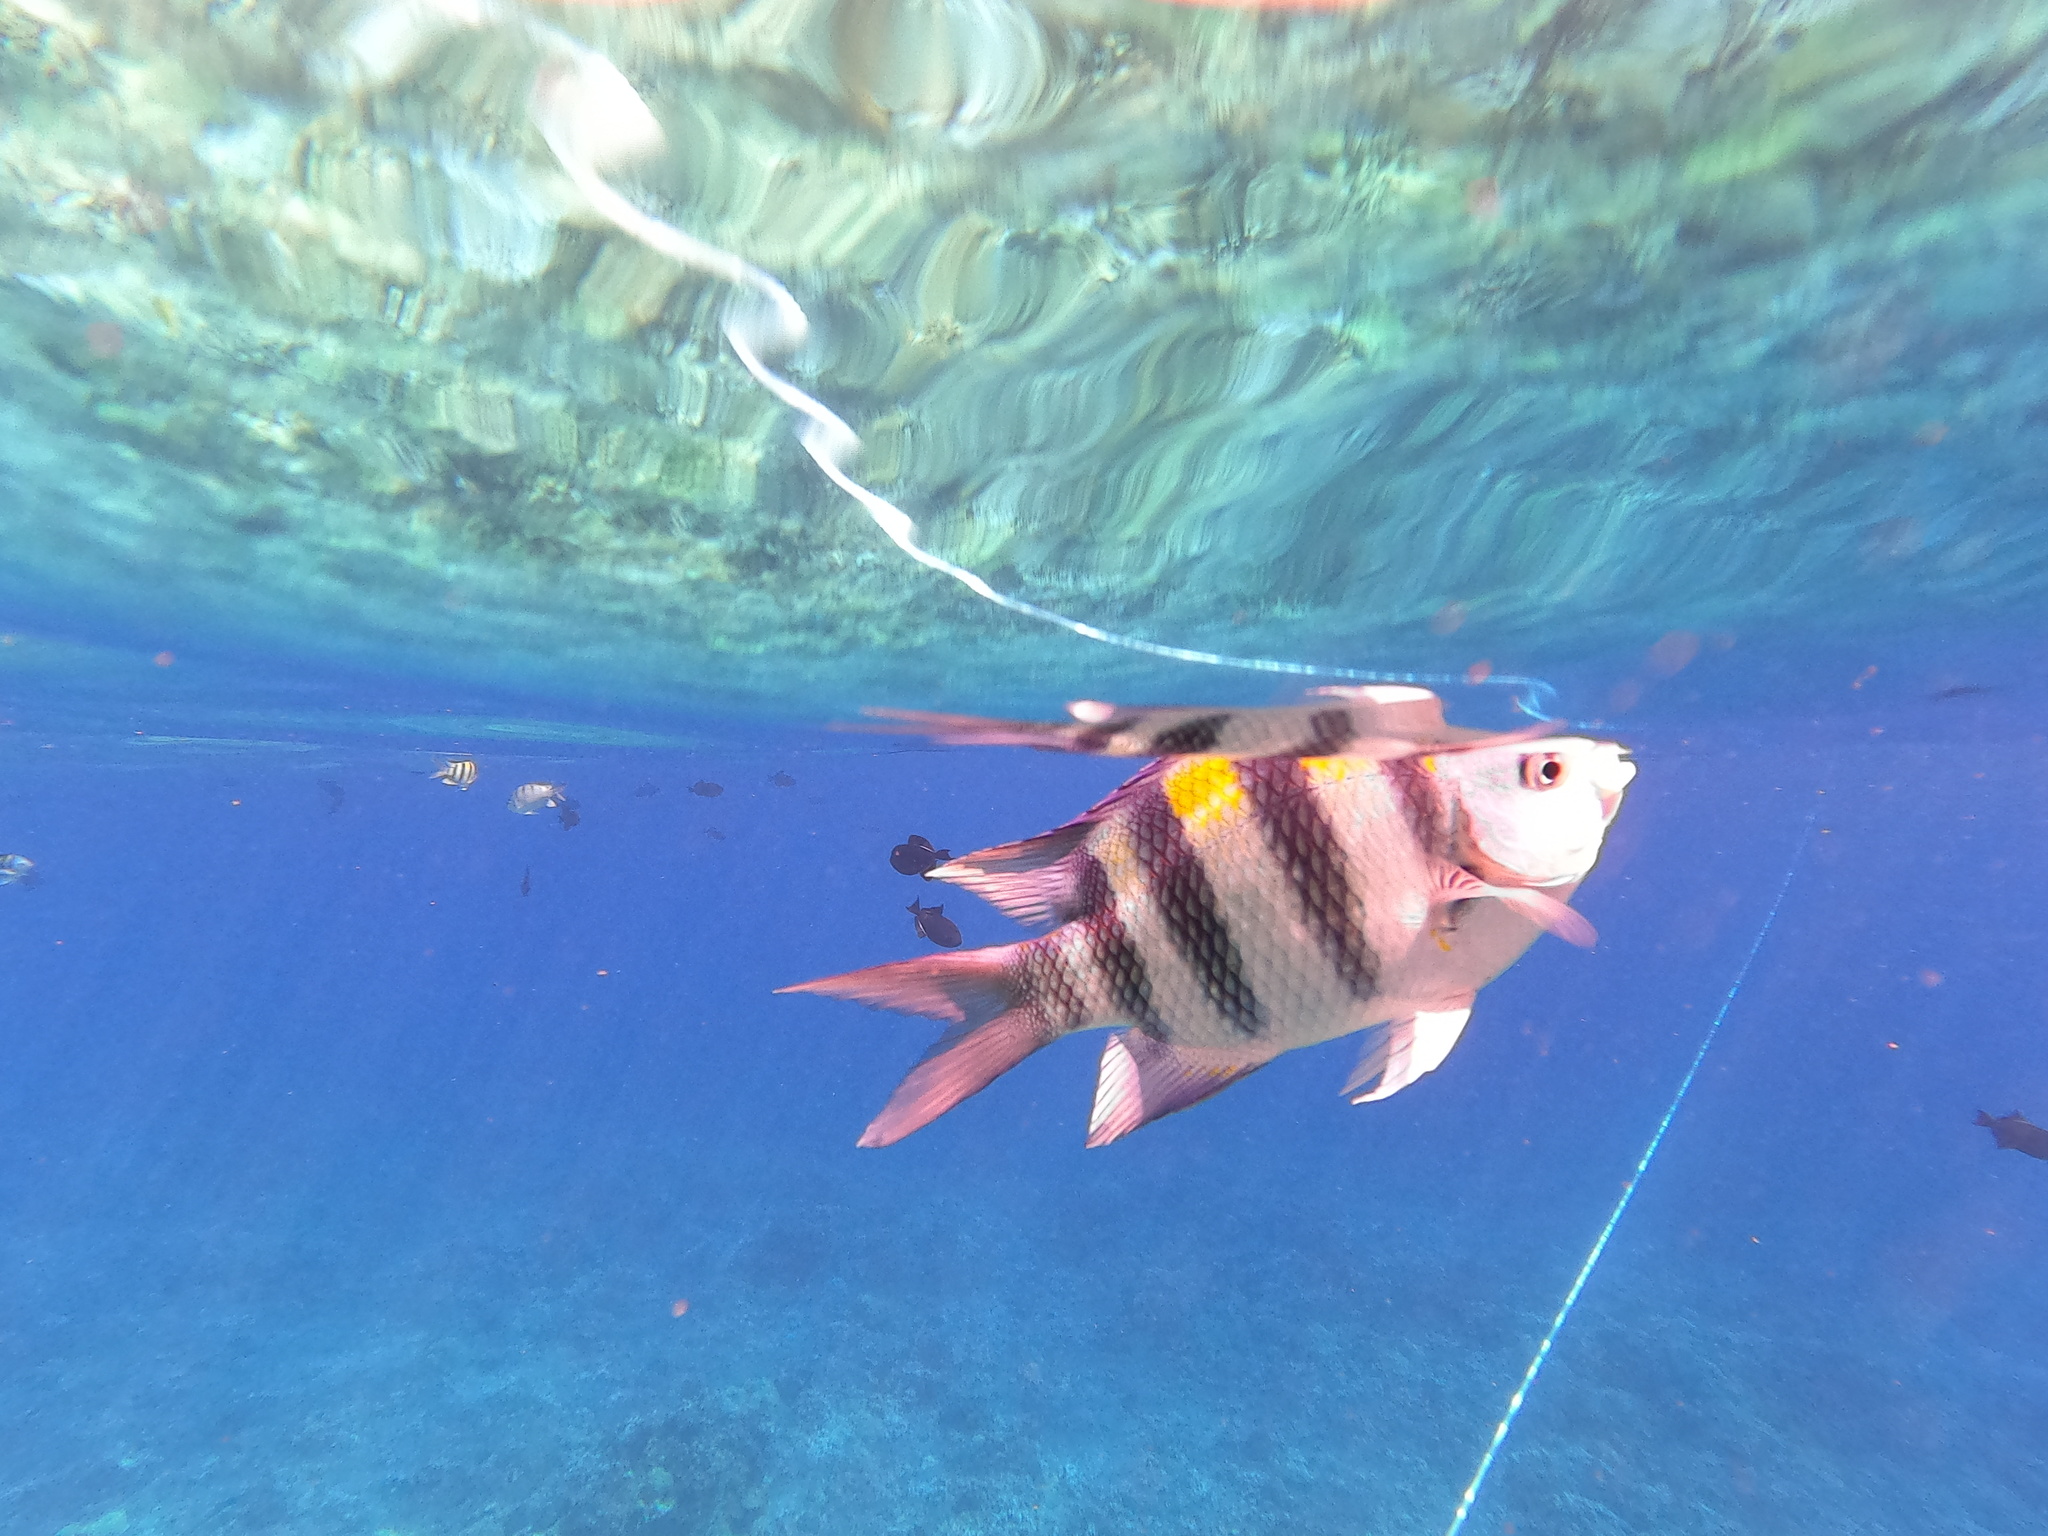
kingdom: Animalia
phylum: Chordata
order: Perciformes
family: Pomacentridae
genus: Abudefduf
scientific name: Abudefduf vaigiensis
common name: Indo-pacific sergeant
